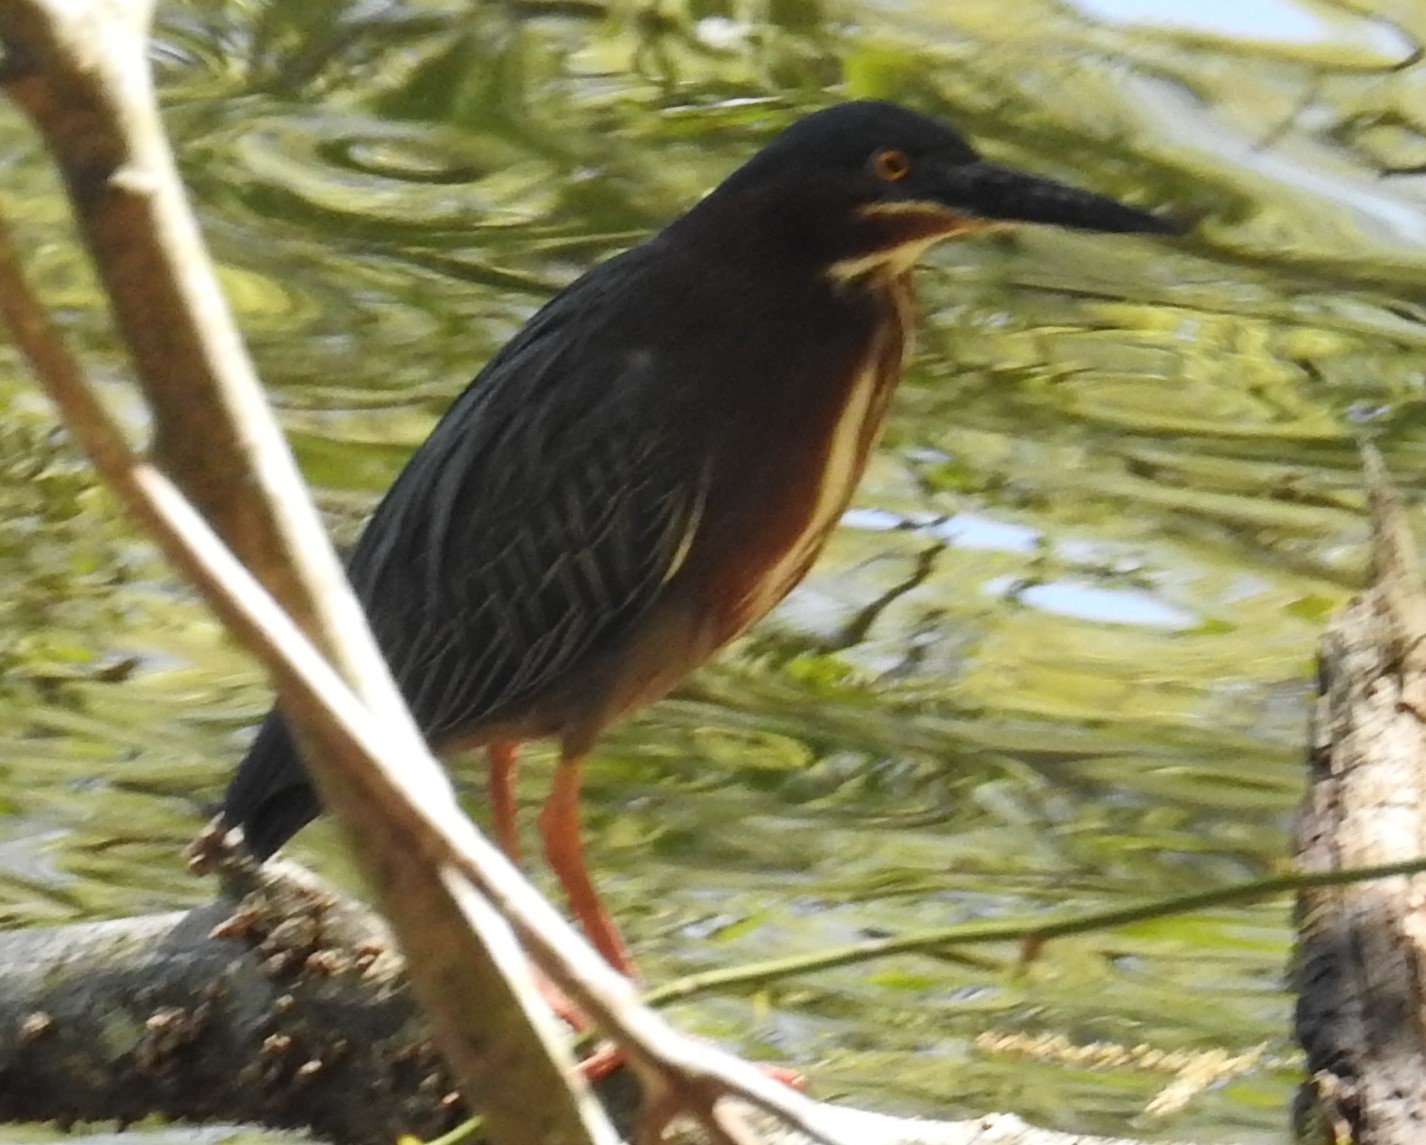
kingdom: Animalia
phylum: Chordata
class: Aves
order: Pelecaniformes
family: Ardeidae
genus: Butorides
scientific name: Butorides virescens
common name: Green heron
